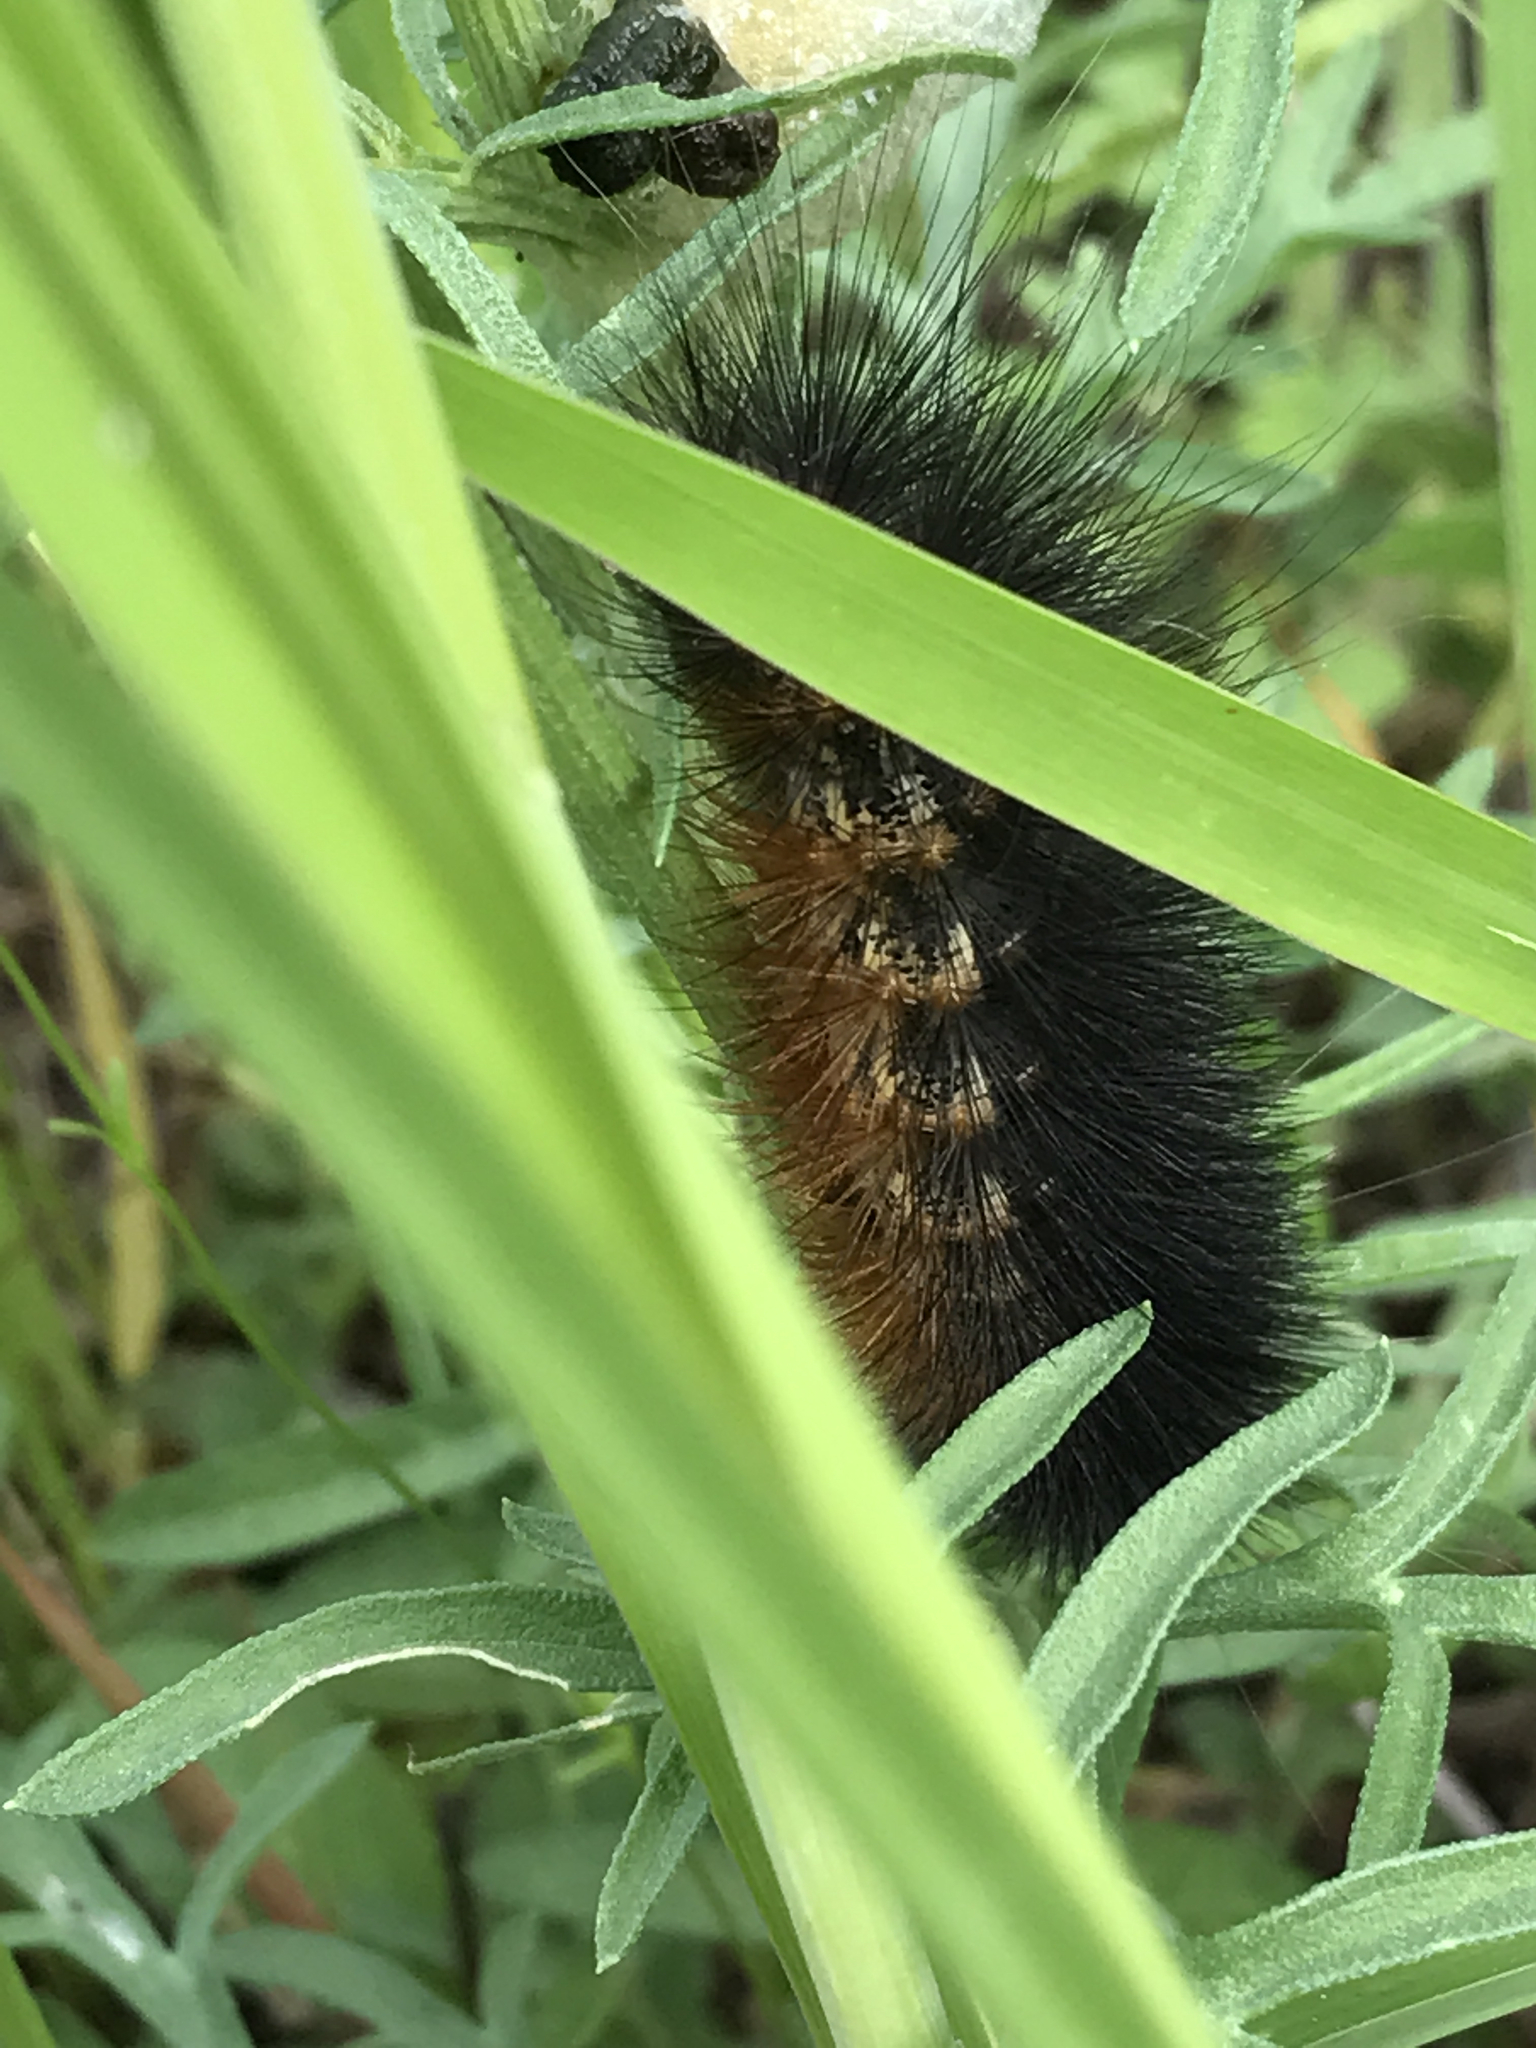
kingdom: Animalia
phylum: Arthropoda
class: Insecta
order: Lepidoptera
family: Erebidae
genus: Estigmene
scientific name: Estigmene acrea
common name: Salt marsh moth
